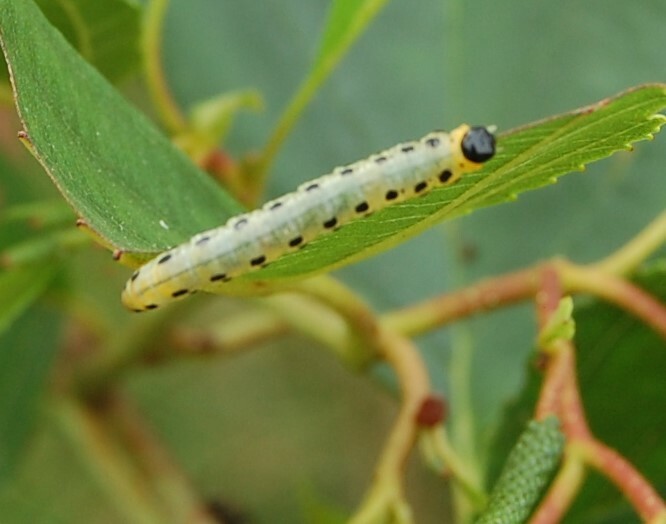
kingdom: Animalia
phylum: Arthropoda
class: Insecta
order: Hymenoptera
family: Tenthredinidae
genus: Craesus
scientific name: Craesus septentrionalis
